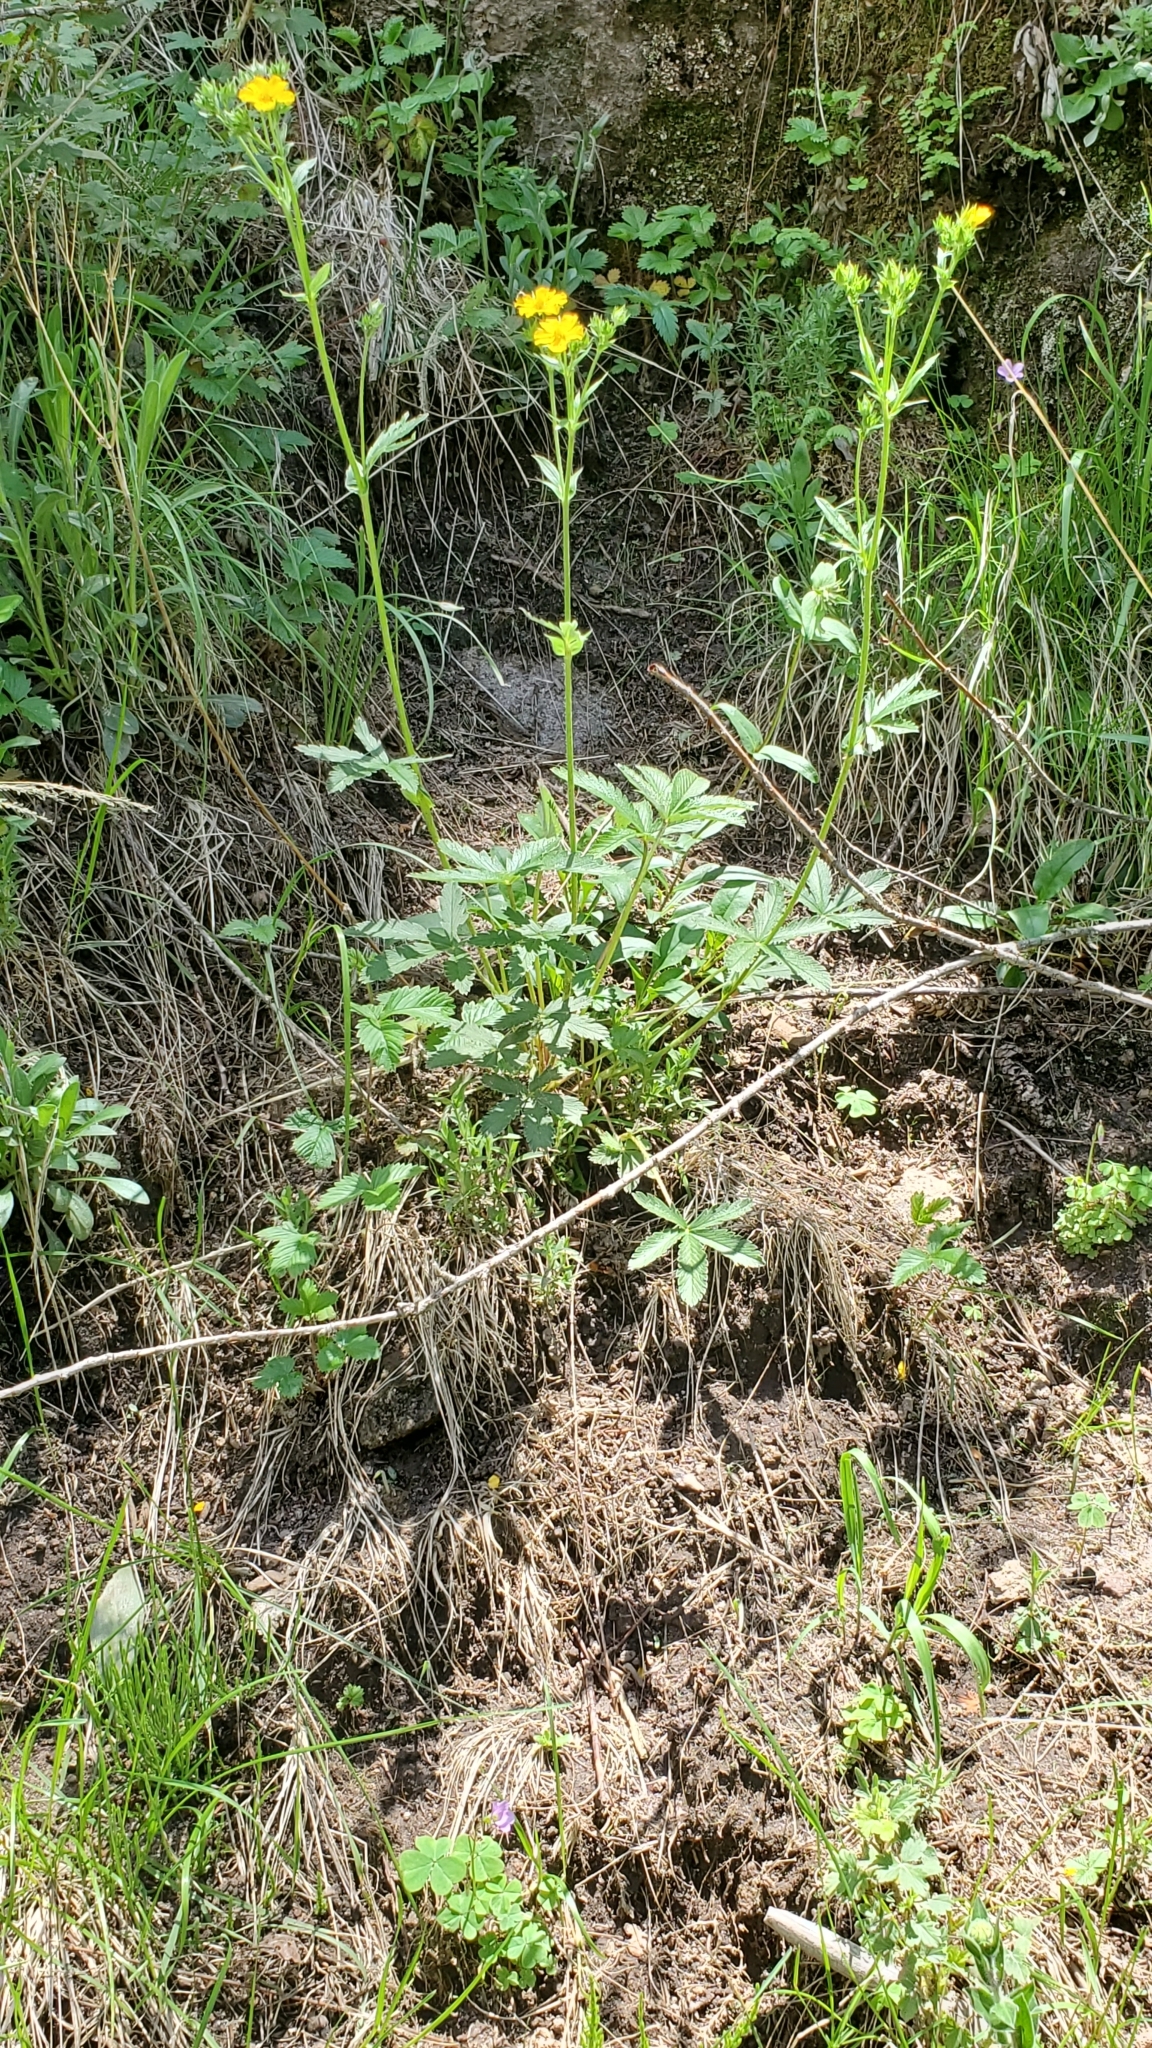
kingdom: Plantae
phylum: Tracheophyta
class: Magnoliopsida
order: Rosales
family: Rosaceae
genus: Potentilla
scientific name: Potentilla pulcherrima
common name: Beautiful cinquefoil
